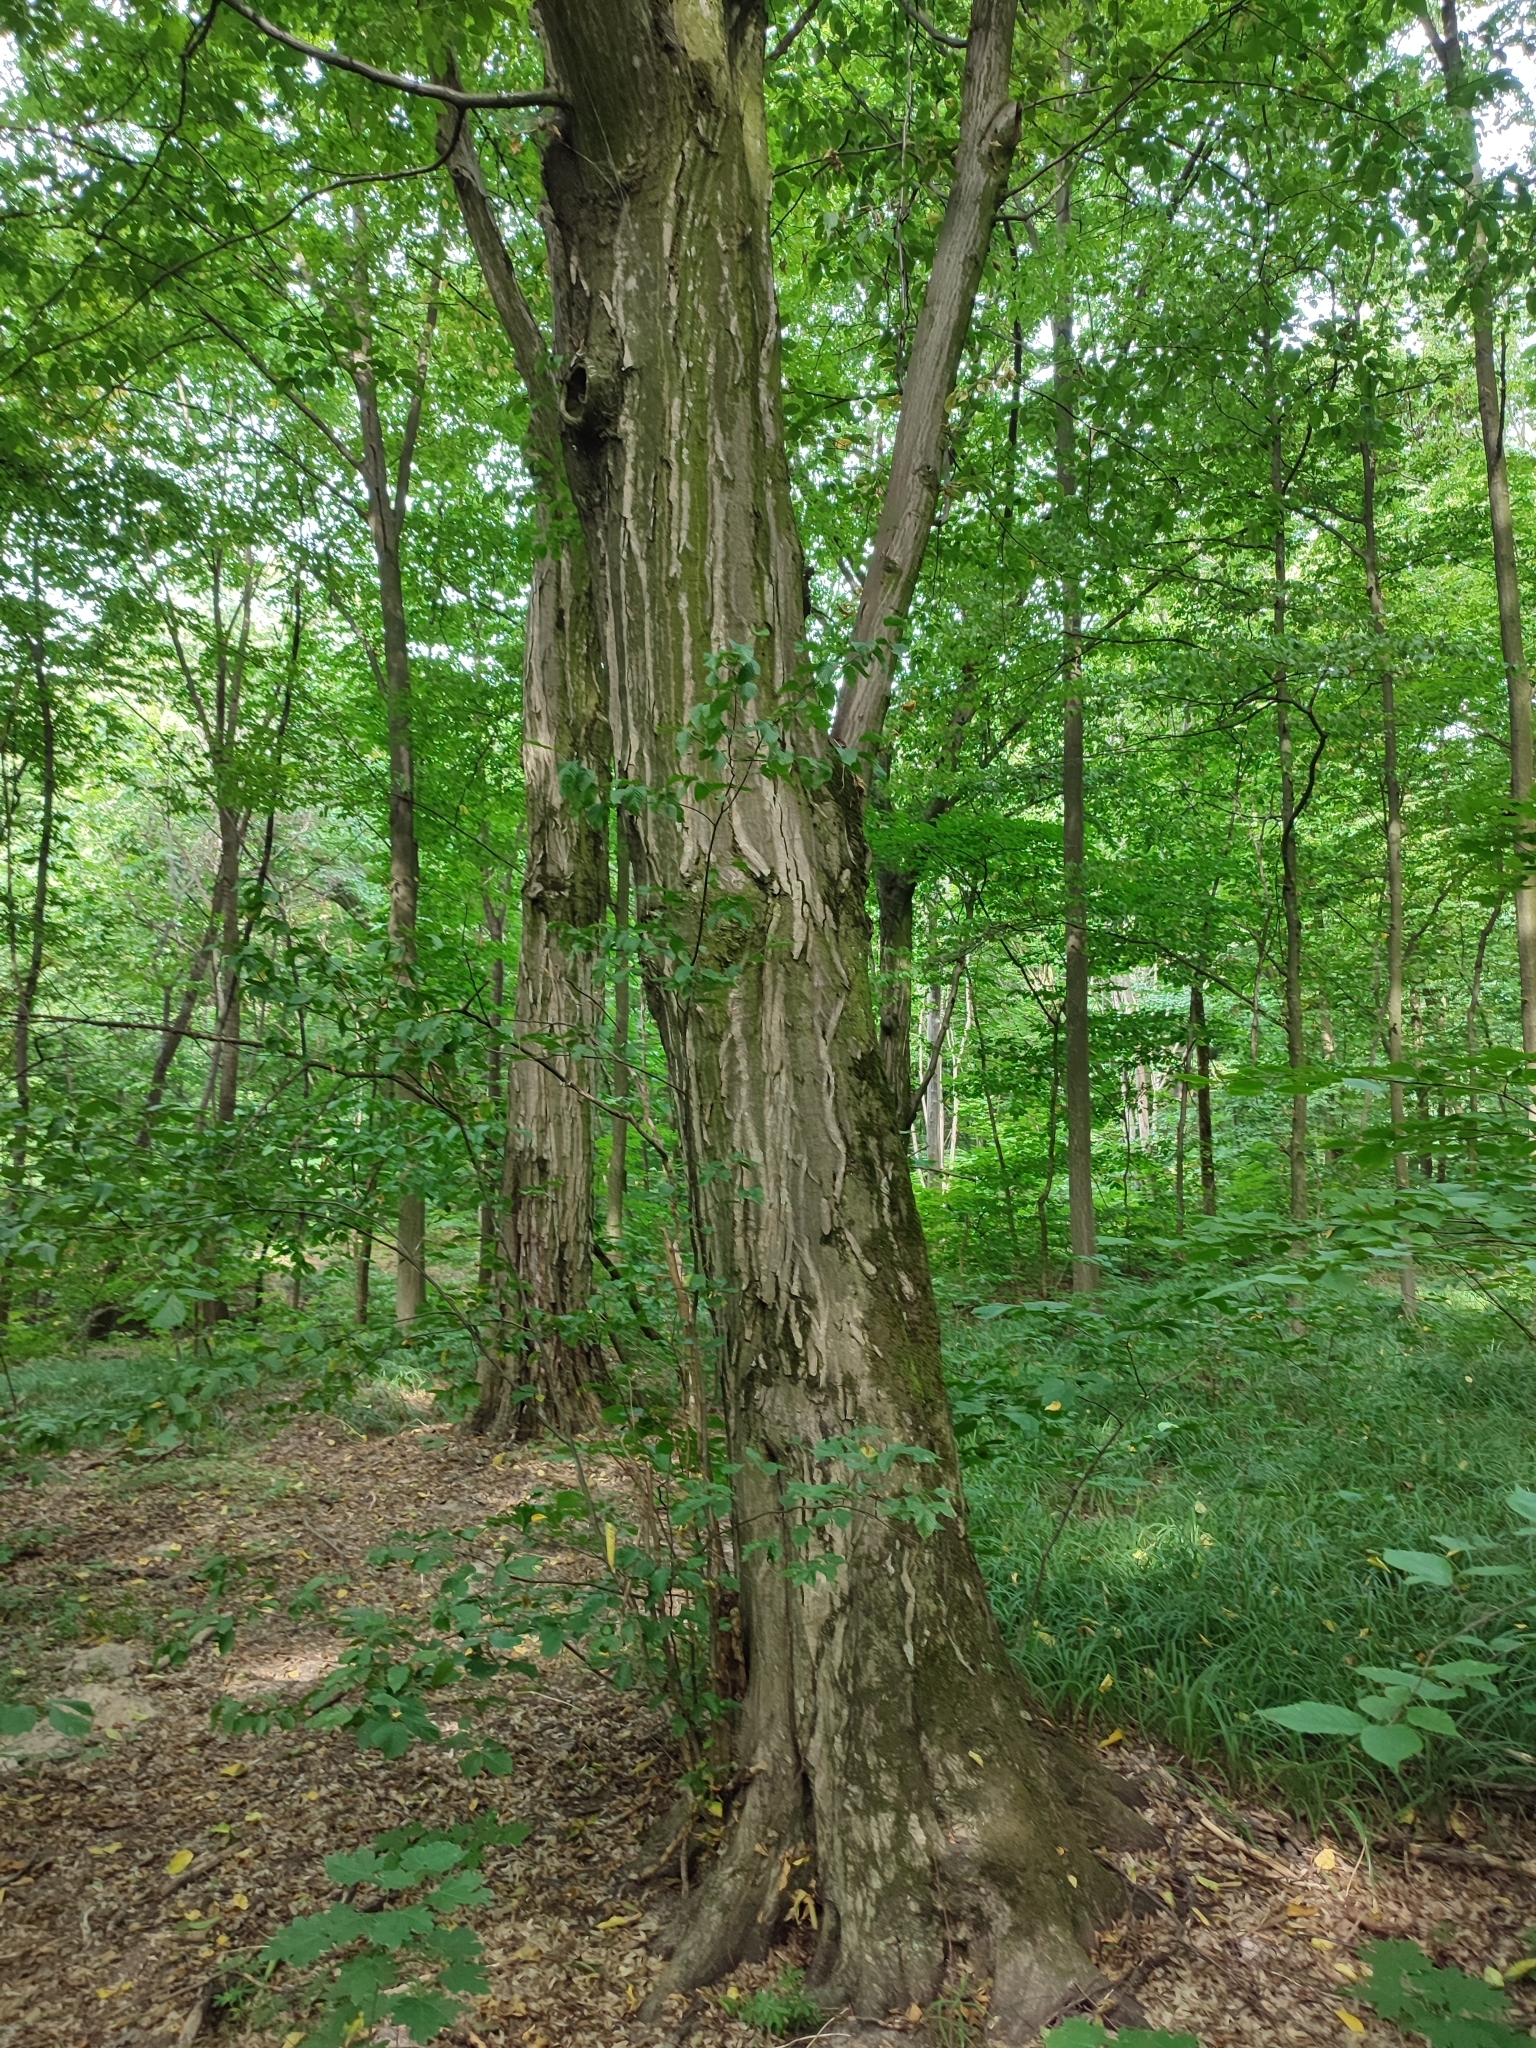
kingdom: Plantae
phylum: Tracheophyta
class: Magnoliopsida
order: Fagales
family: Betulaceae
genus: Carpinus
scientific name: Carpinus betulus
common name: Hornbeam
